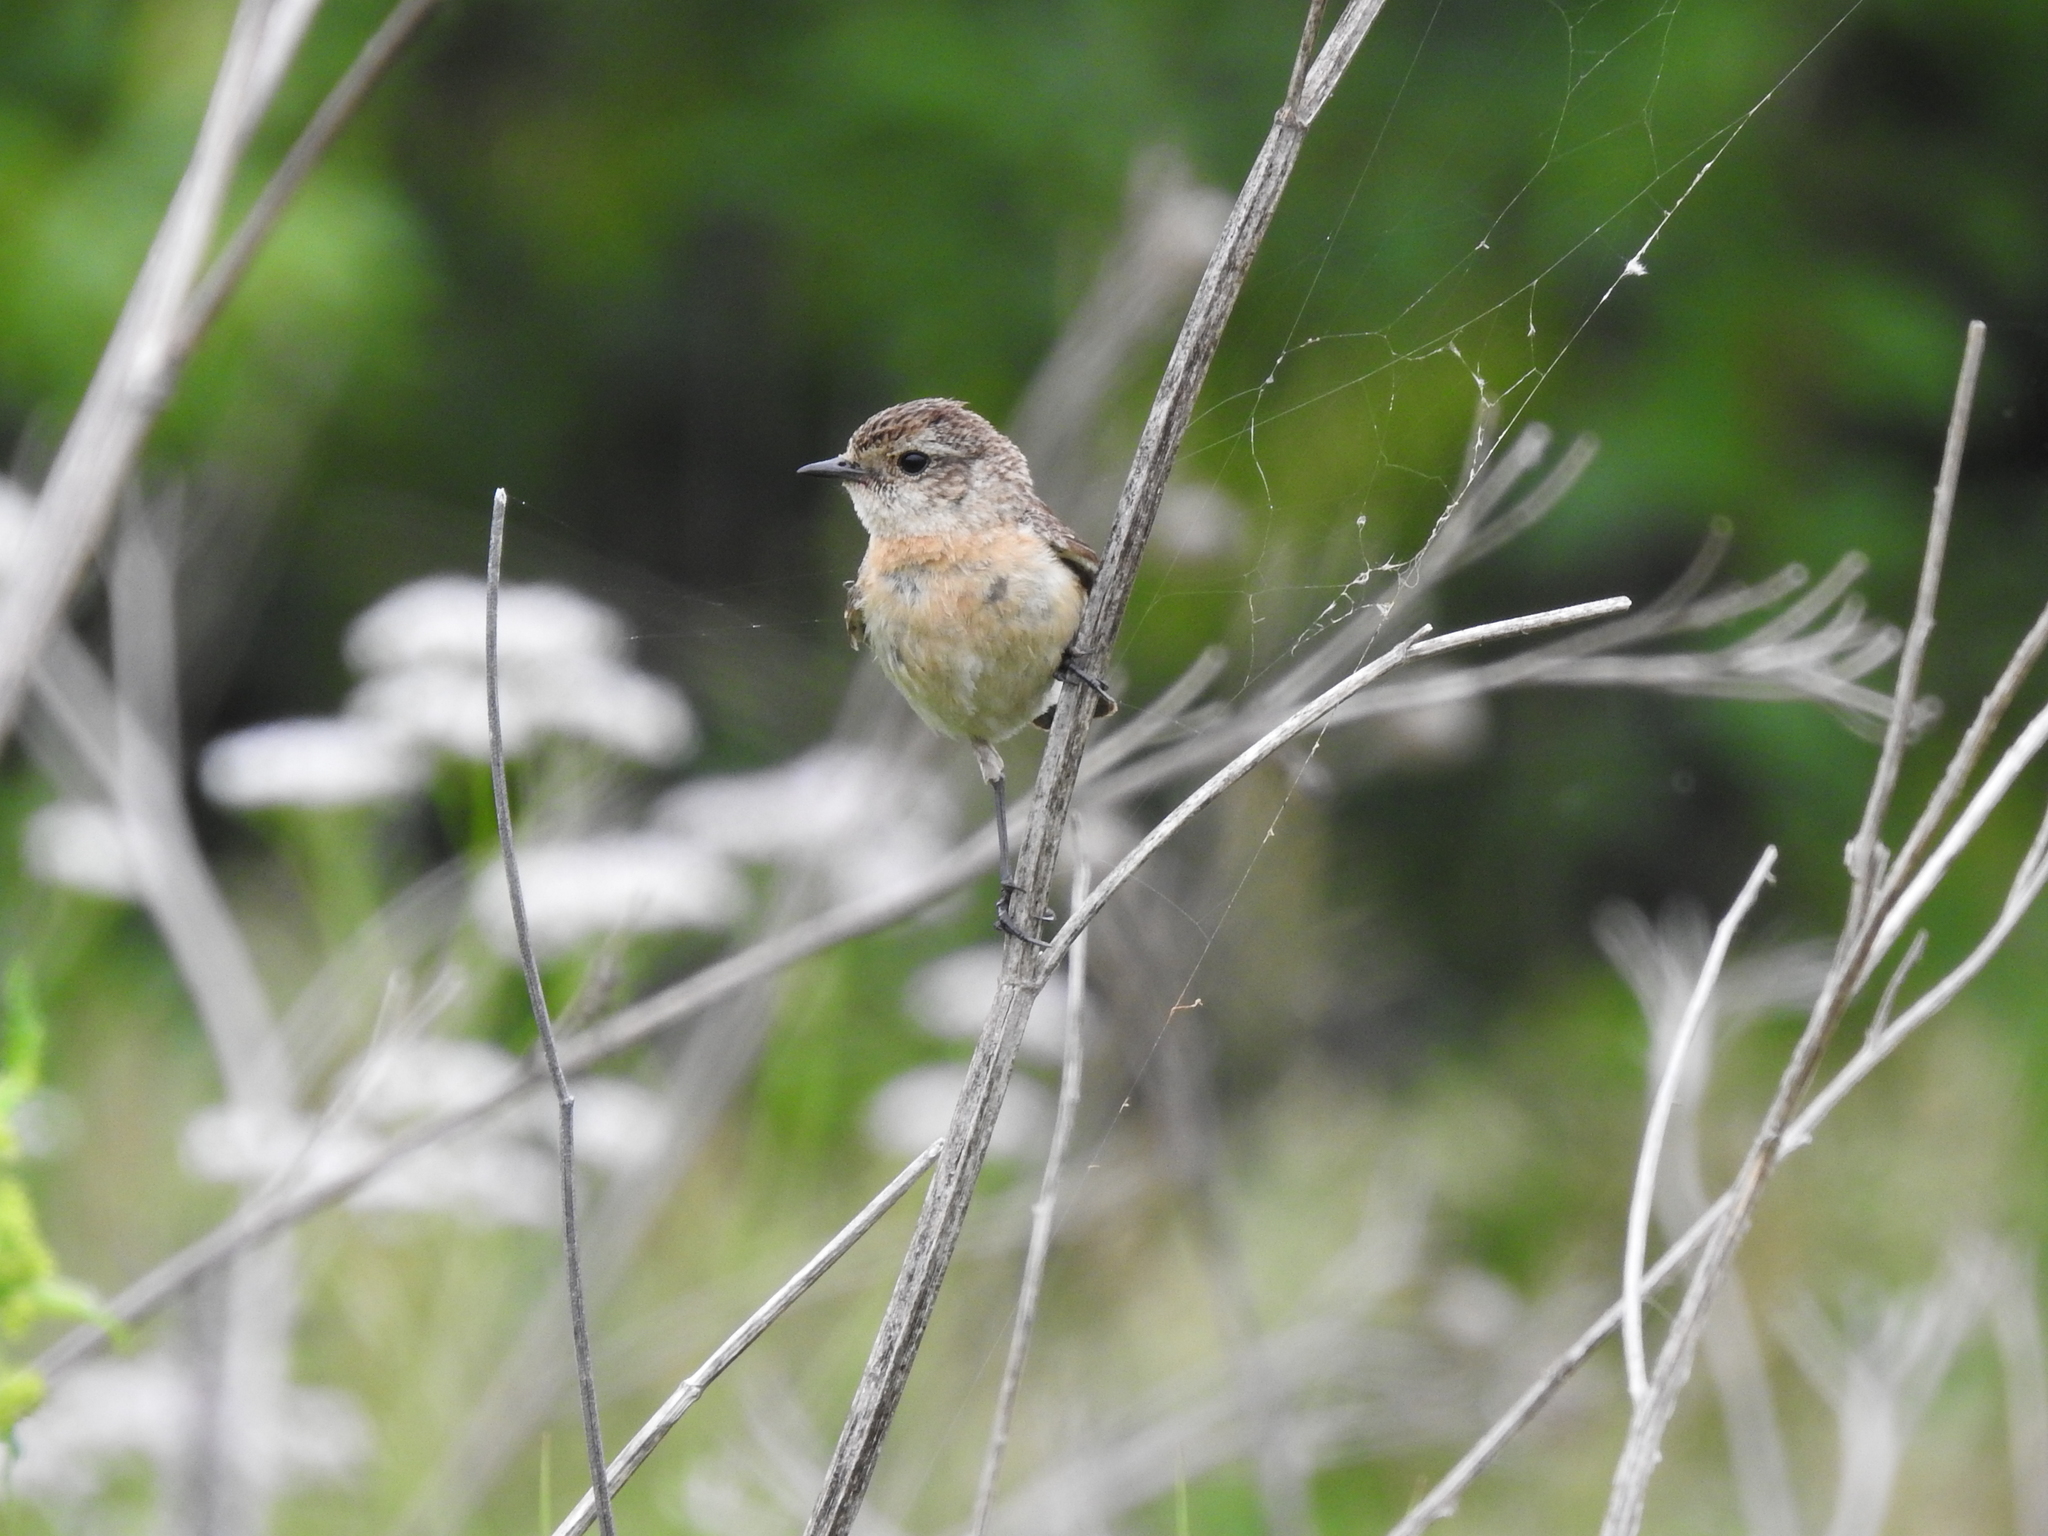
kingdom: Animalia
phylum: Chordata
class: Aves
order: Passeriformes
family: Muscicapidae
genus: Saxicola
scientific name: Saxicola maurus
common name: Siberian stonechat
